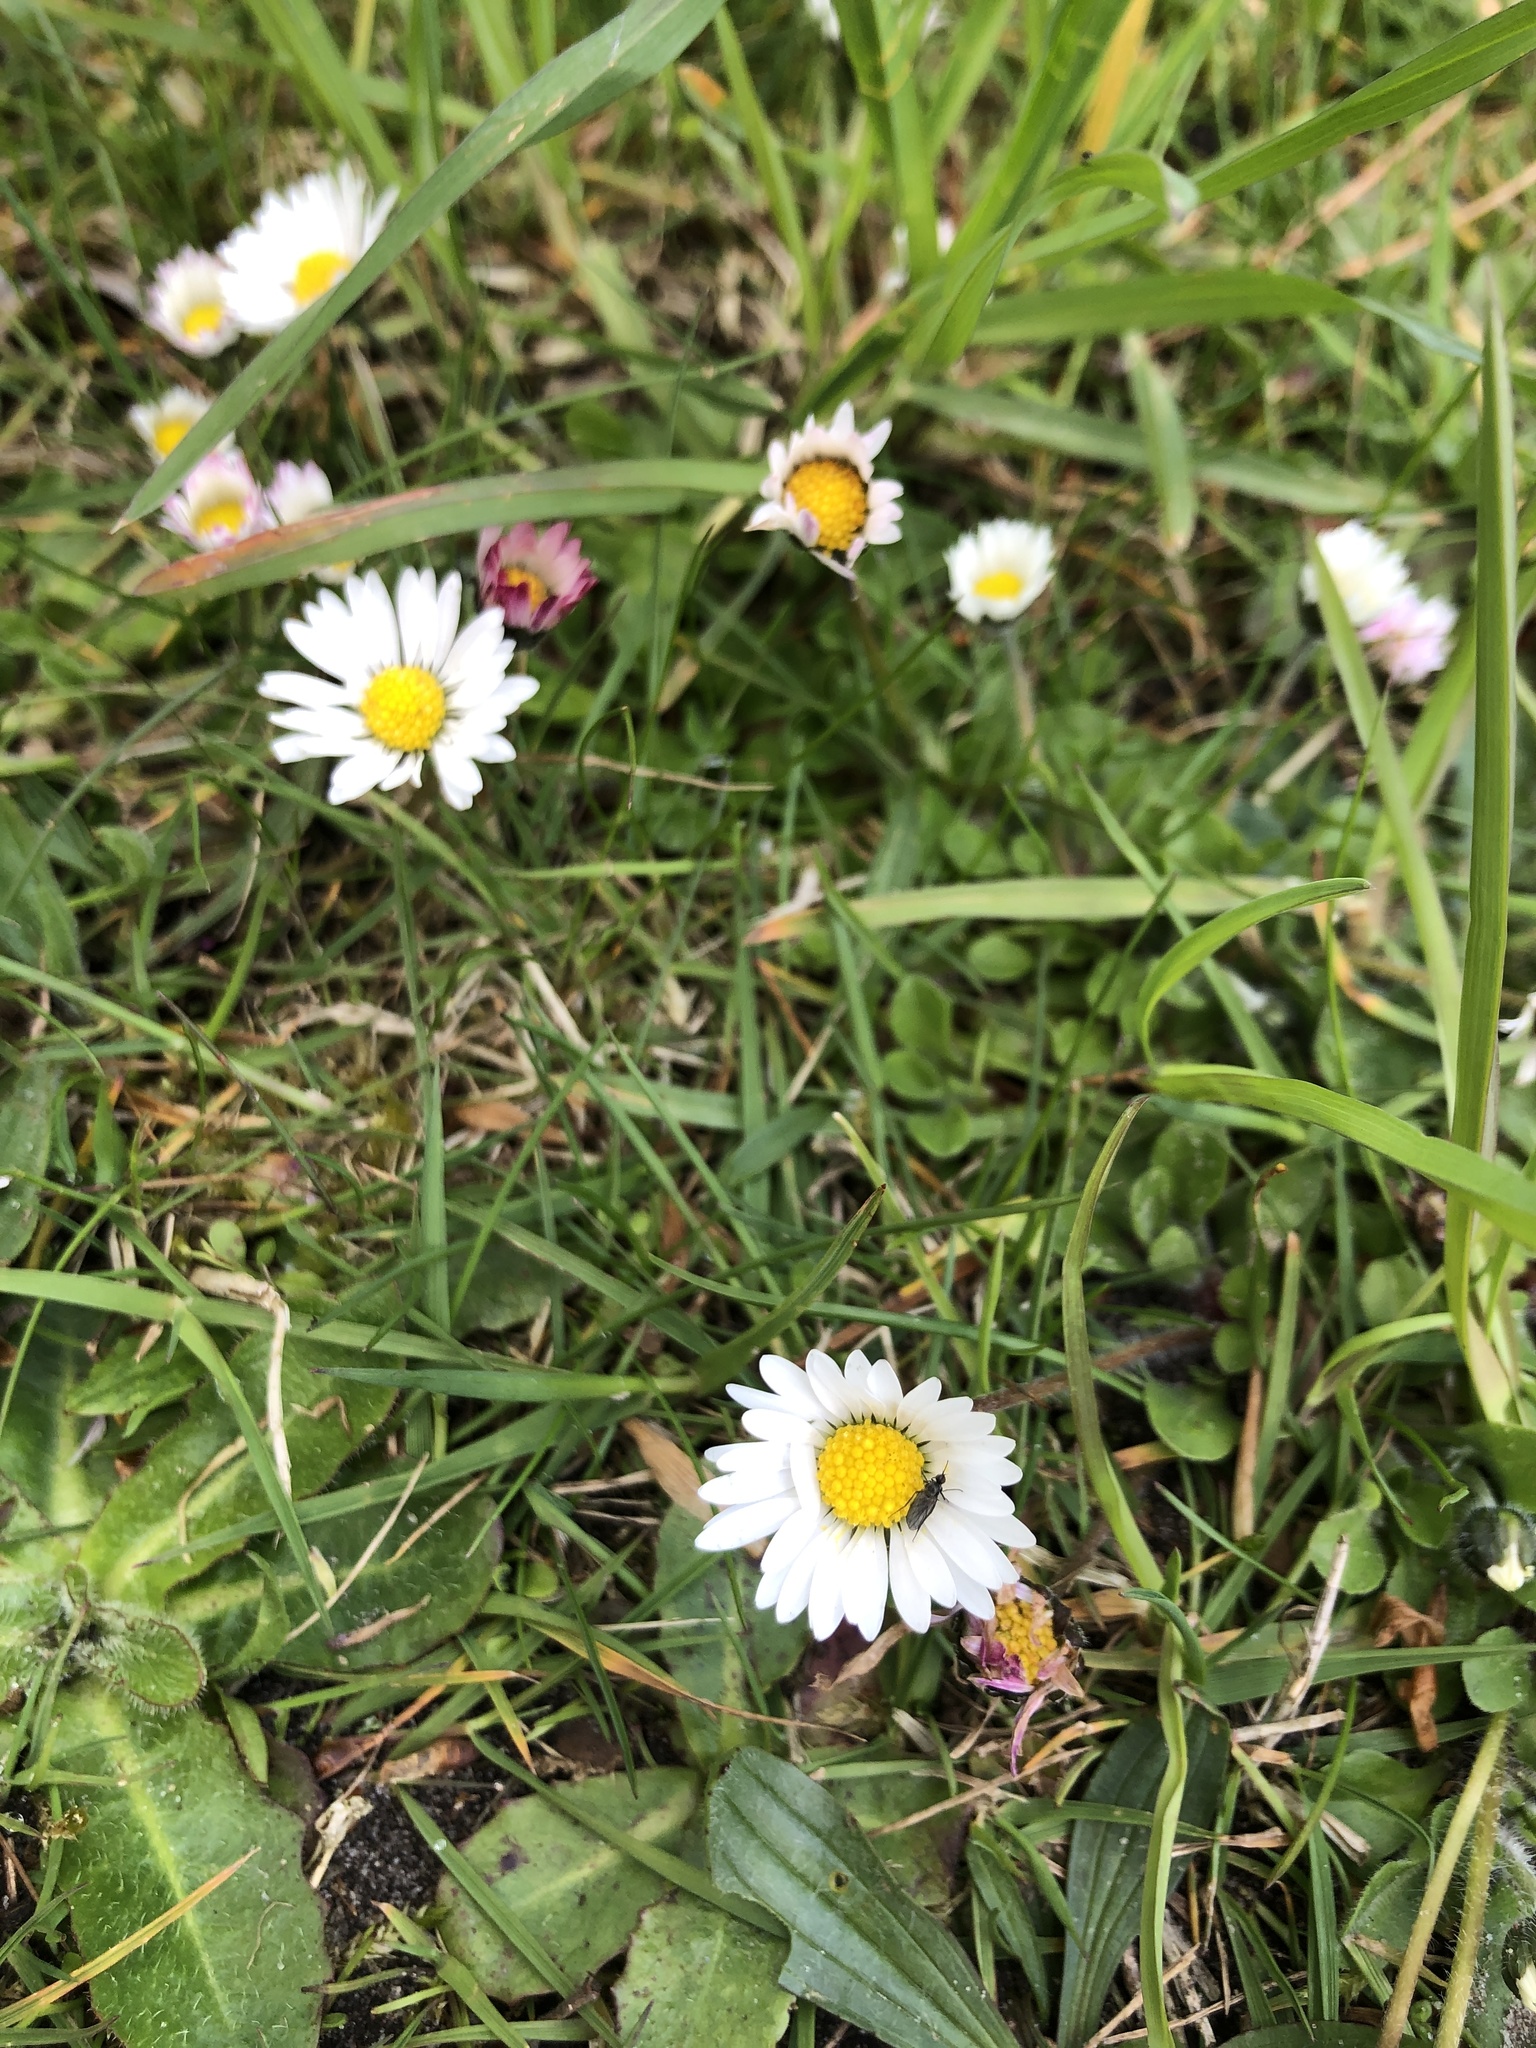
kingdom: Plantae
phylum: Tracheophyta
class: Magnoliopsida
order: Asterales
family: Asteraceae
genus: Bellis
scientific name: Bellis perennis
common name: Lawndaisy
